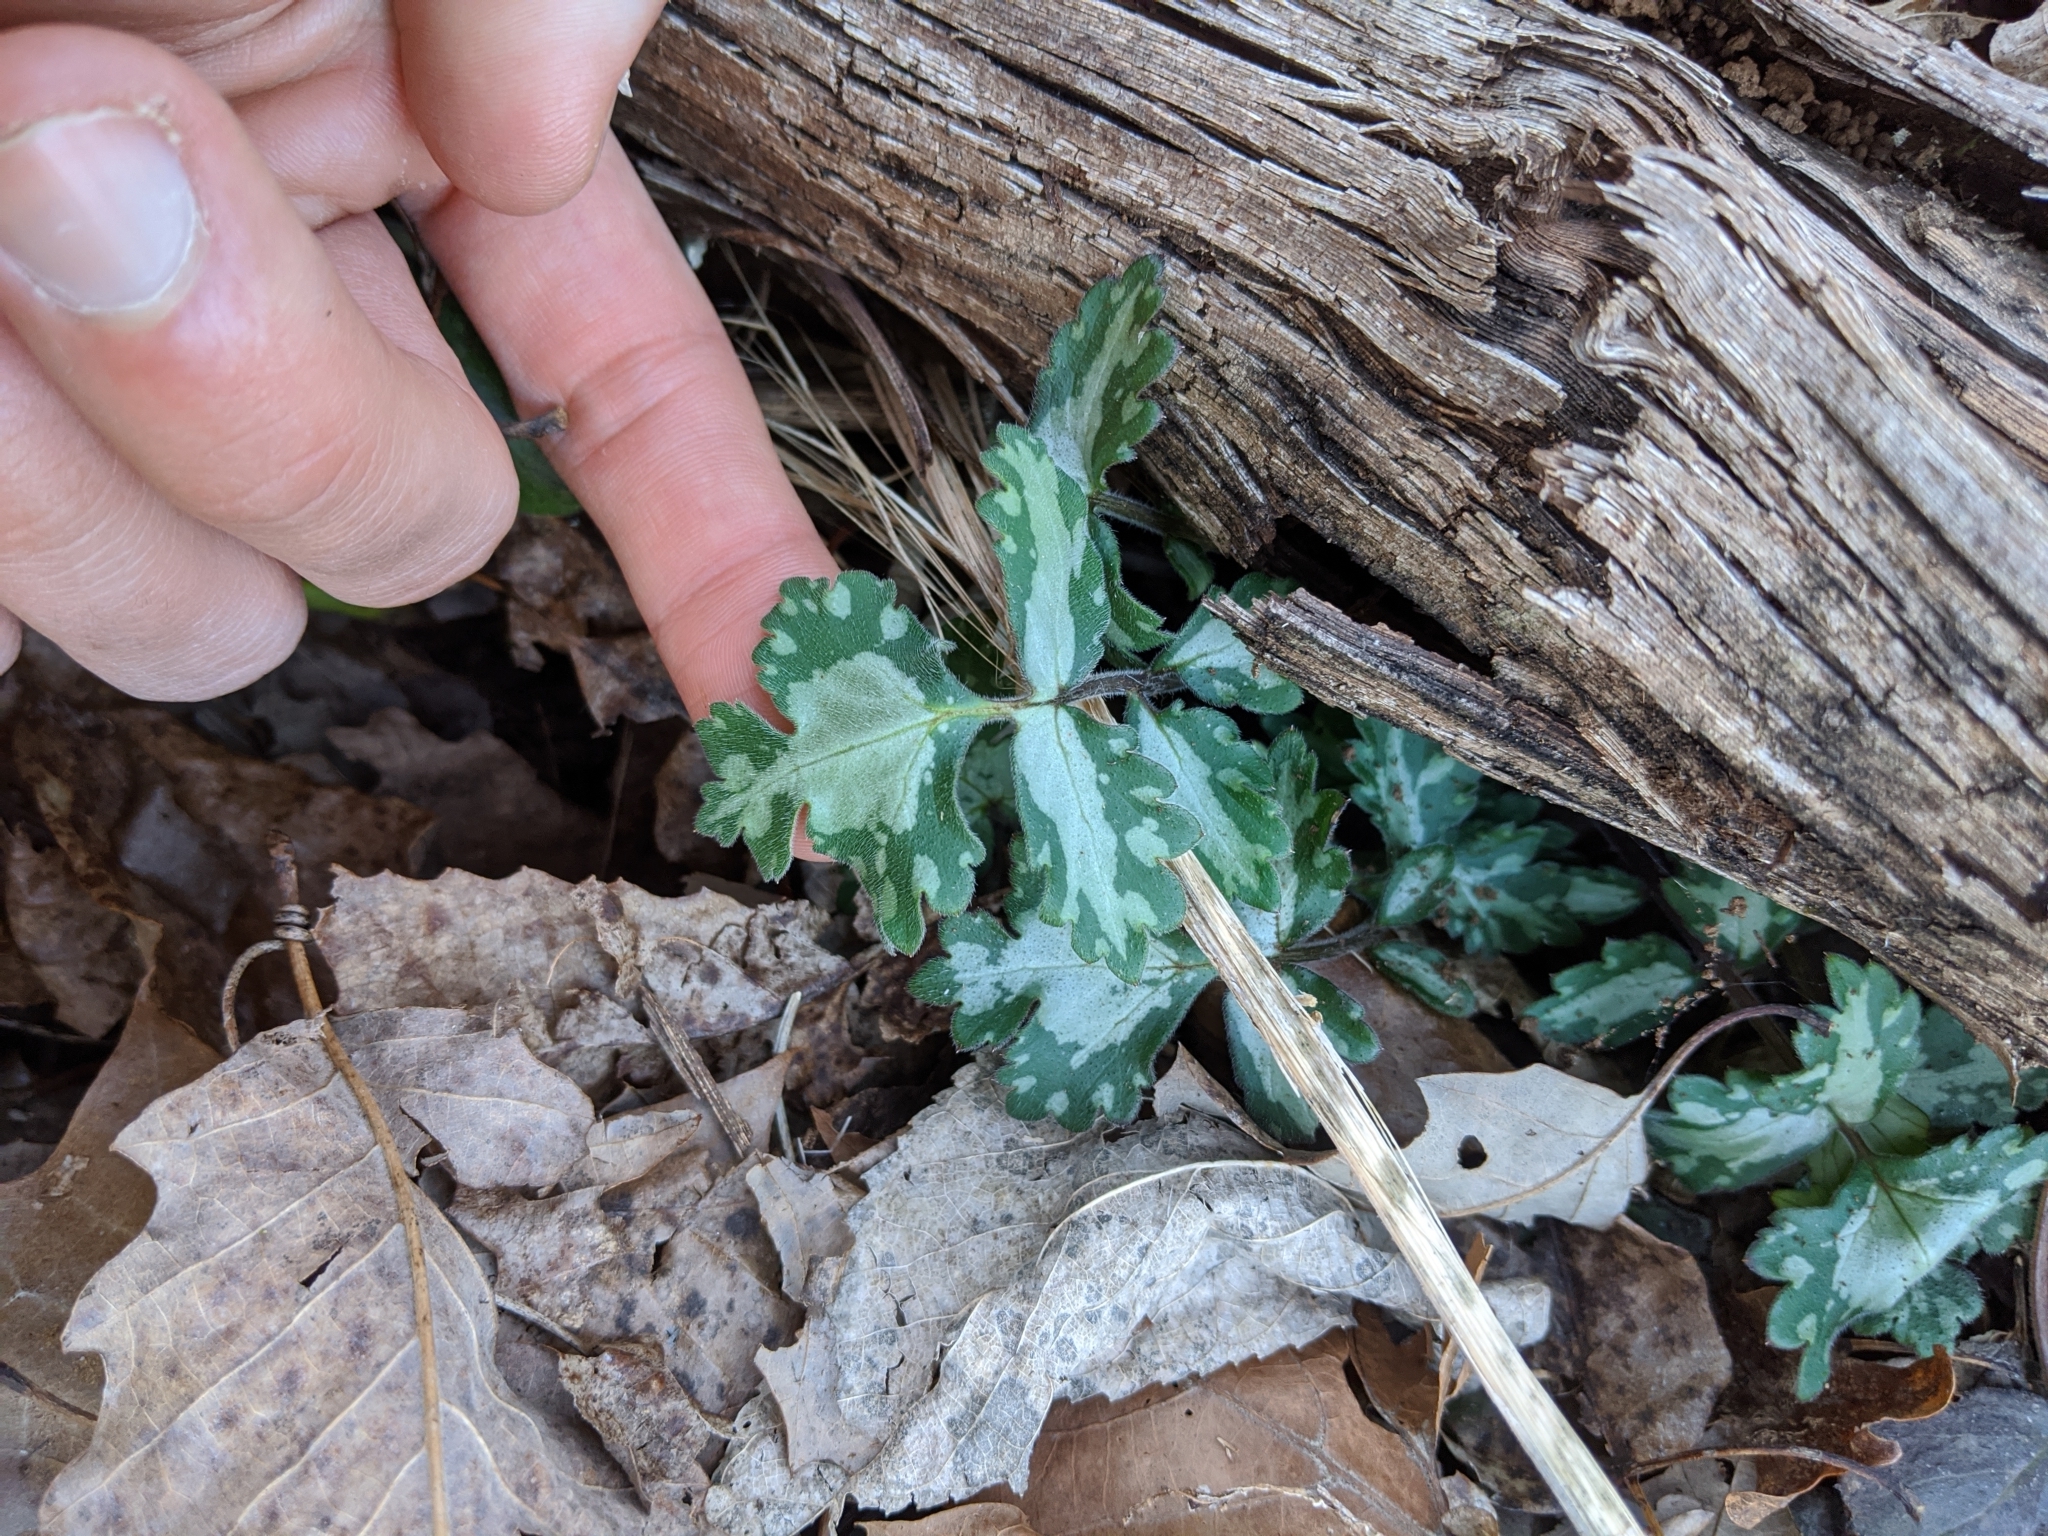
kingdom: Plantae
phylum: Tracheophyta
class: Magnoliopsida
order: Boraginales
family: Hydrophyllaceae
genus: Hydrophyllum
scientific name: Hydrophyllum appendiculatum
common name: Appendaged waterleaf
